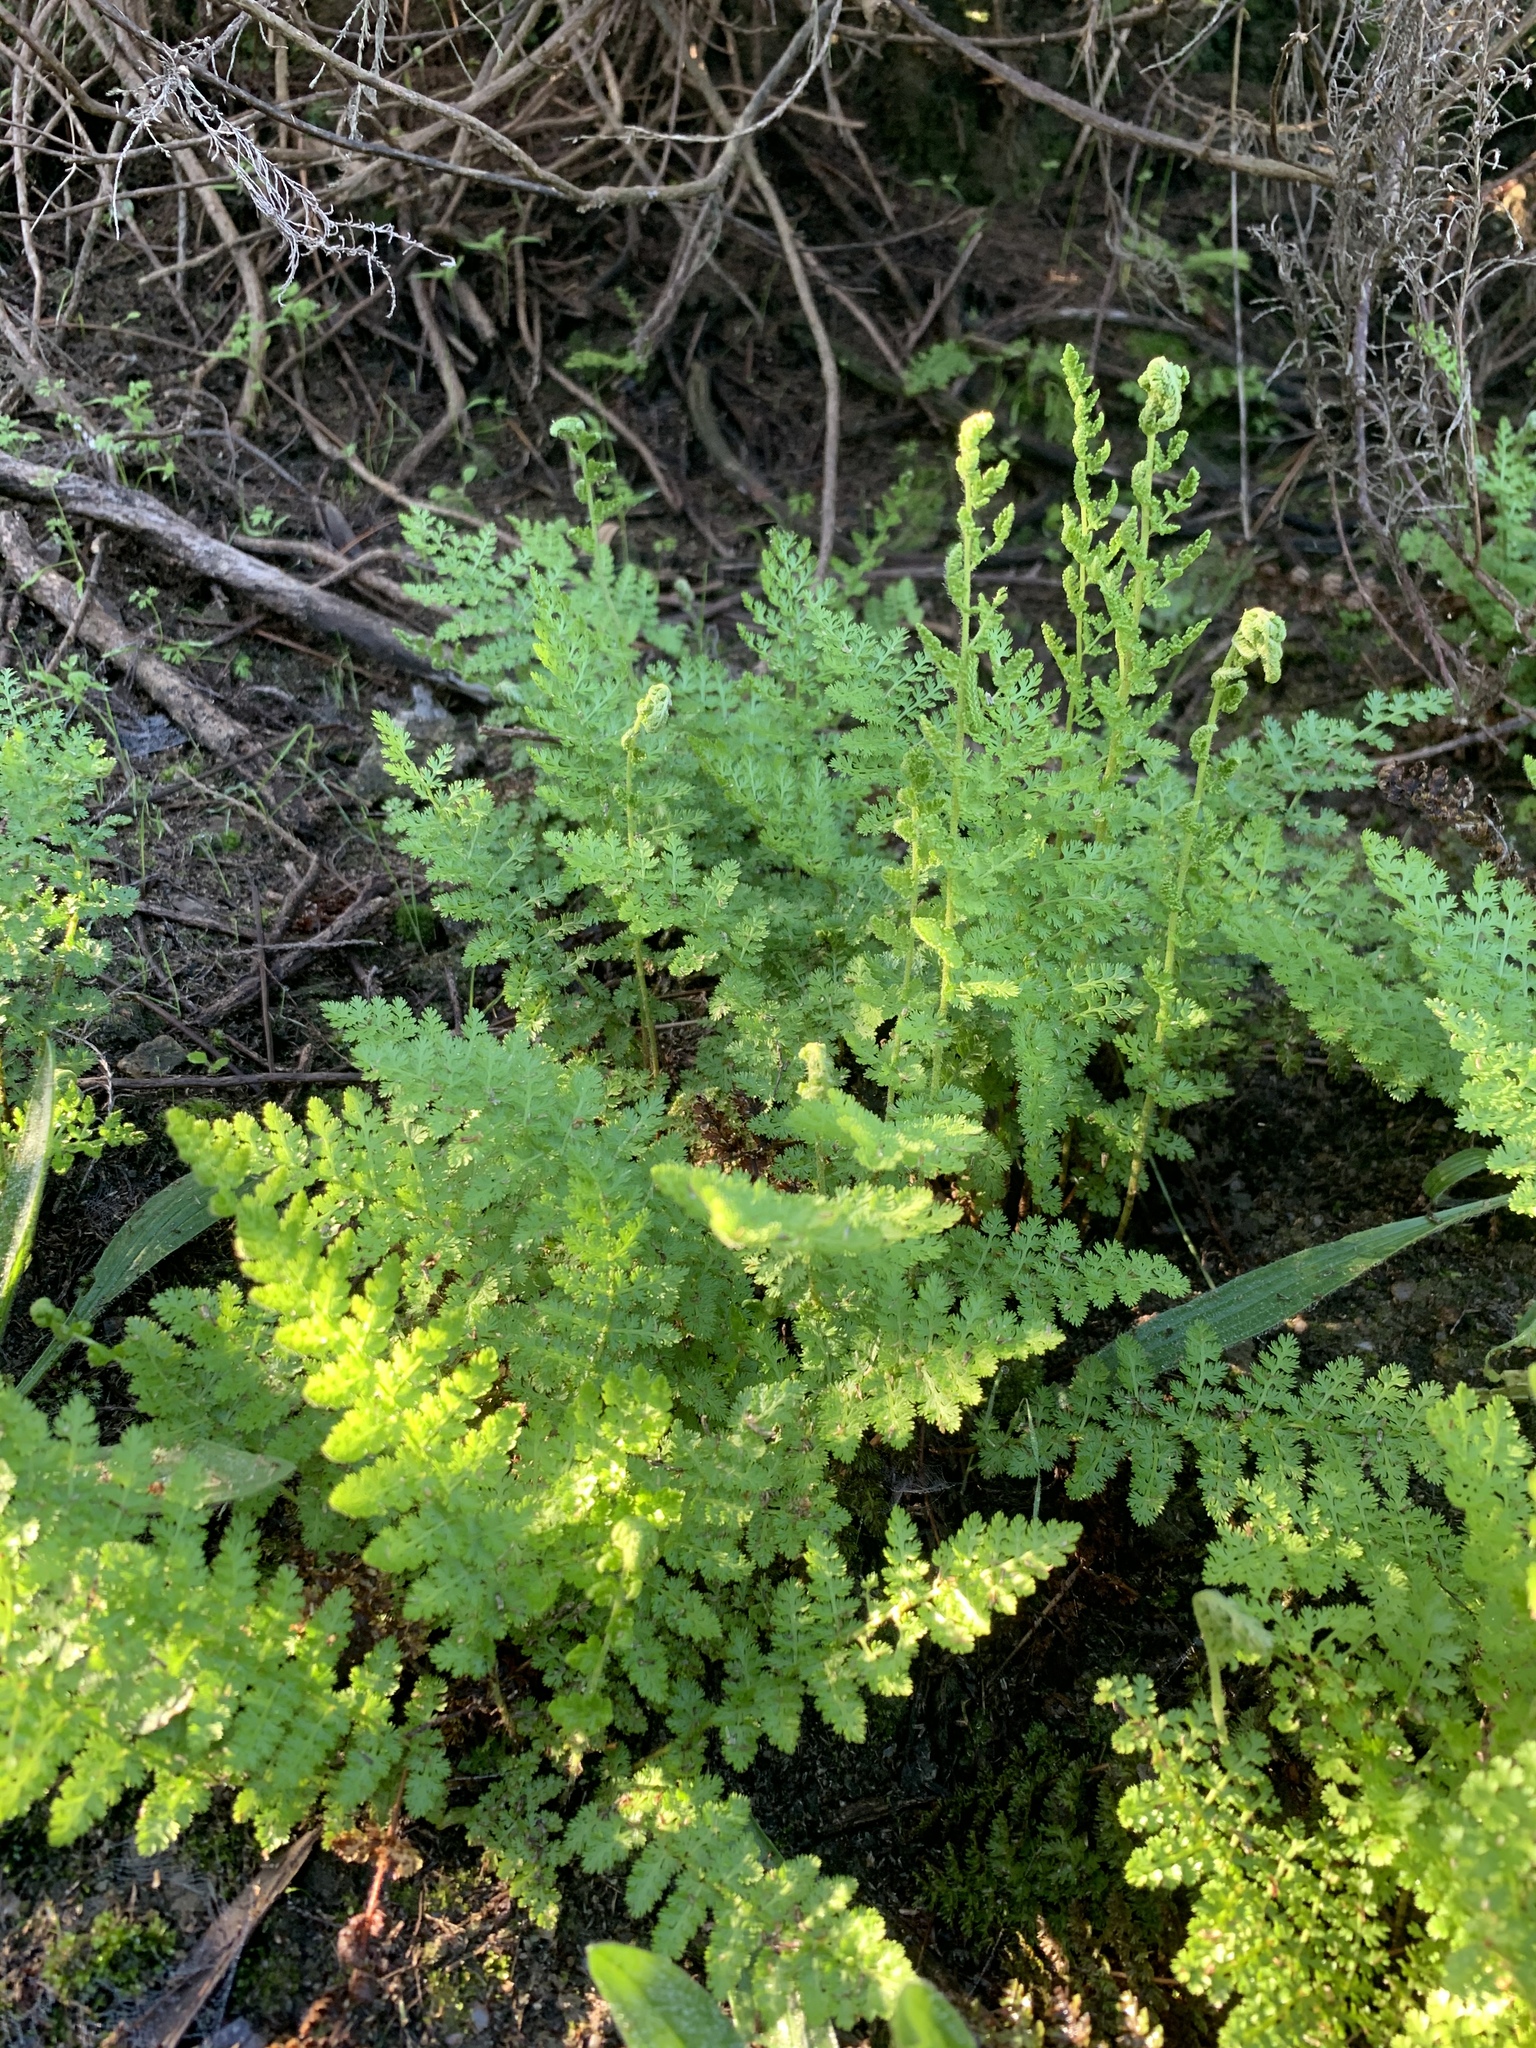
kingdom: Plantae
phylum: Tracheophyta
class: Polypodiopsida
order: Schizaeales
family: Anemiaceae
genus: Anemia
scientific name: Anemia caffrorum
